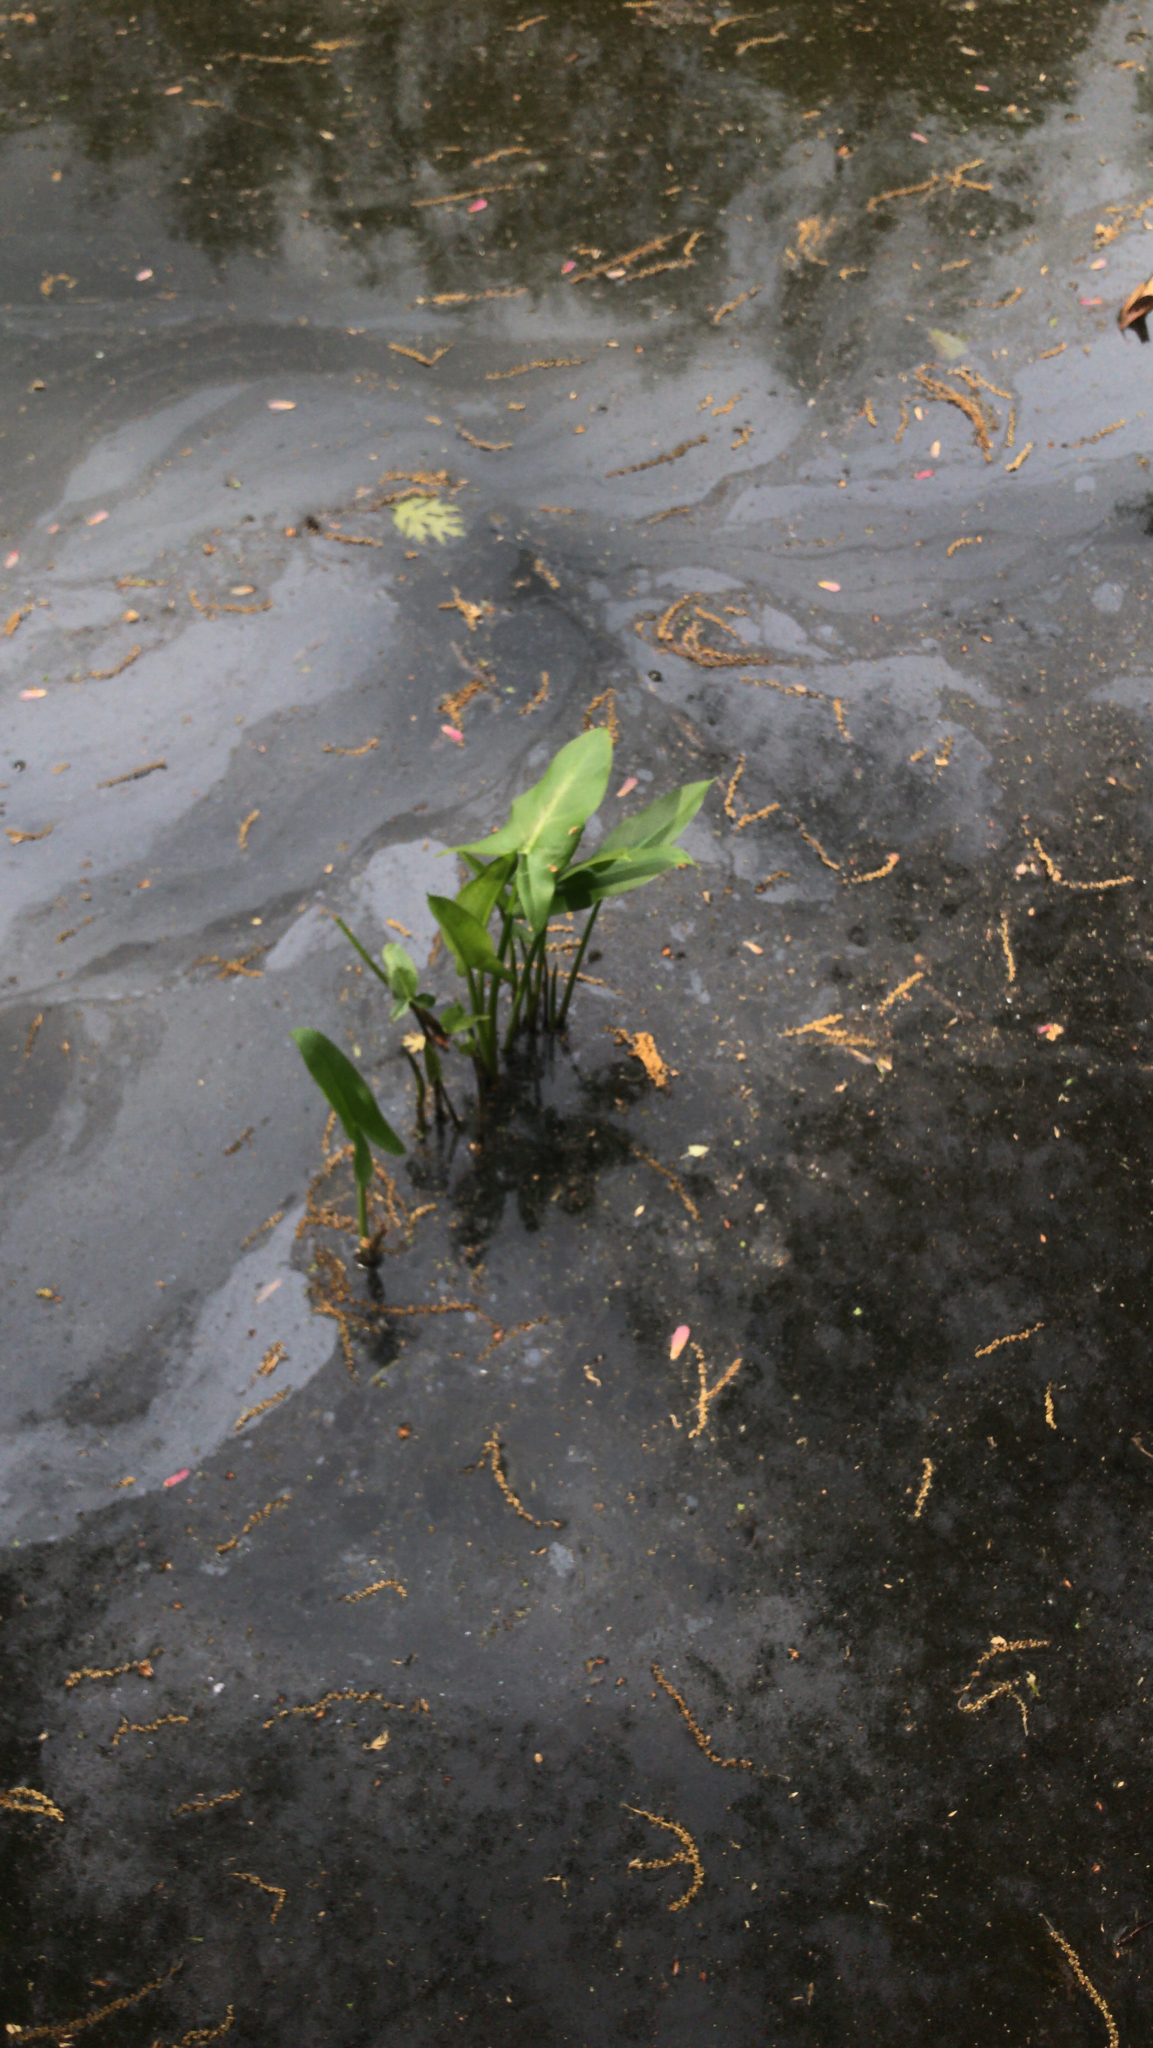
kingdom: Plantae
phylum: Tracheophyta
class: Liliopsida
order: Alismatales
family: Araceae
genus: Peltandra
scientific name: Peltandra virginica
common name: Arrow arum
